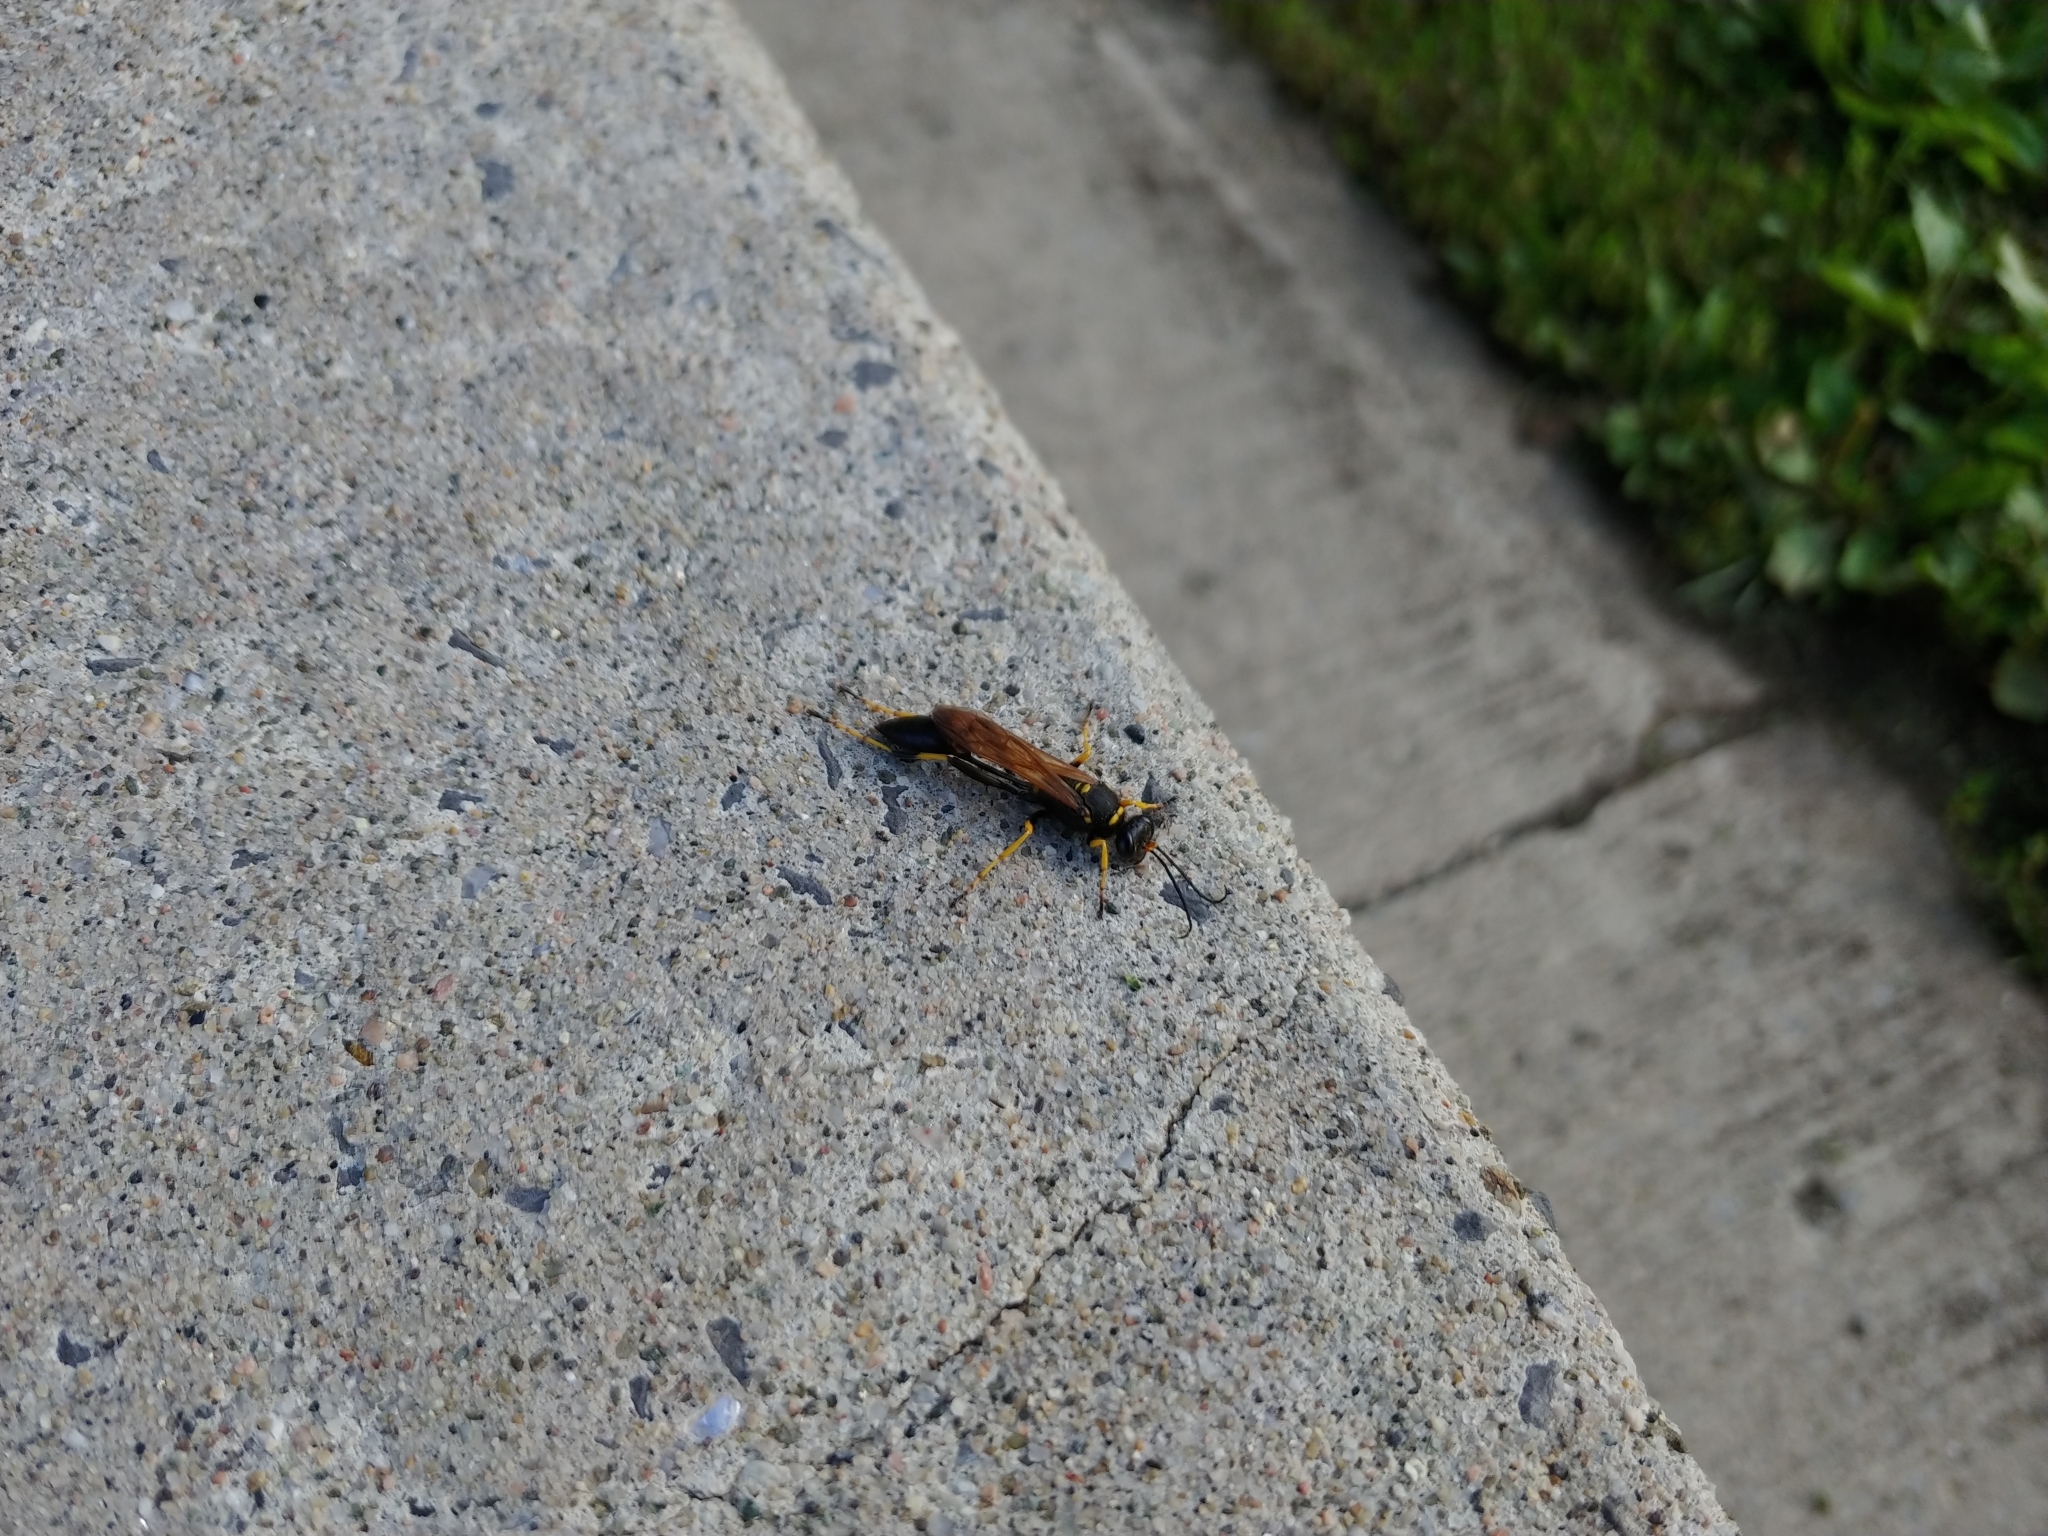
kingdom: Animalia
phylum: Arthropoda
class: Insecta
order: Hymenoptera
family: Sphecidae
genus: Sceliphron
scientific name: Sceliphron caementarium
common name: Mud dauber
